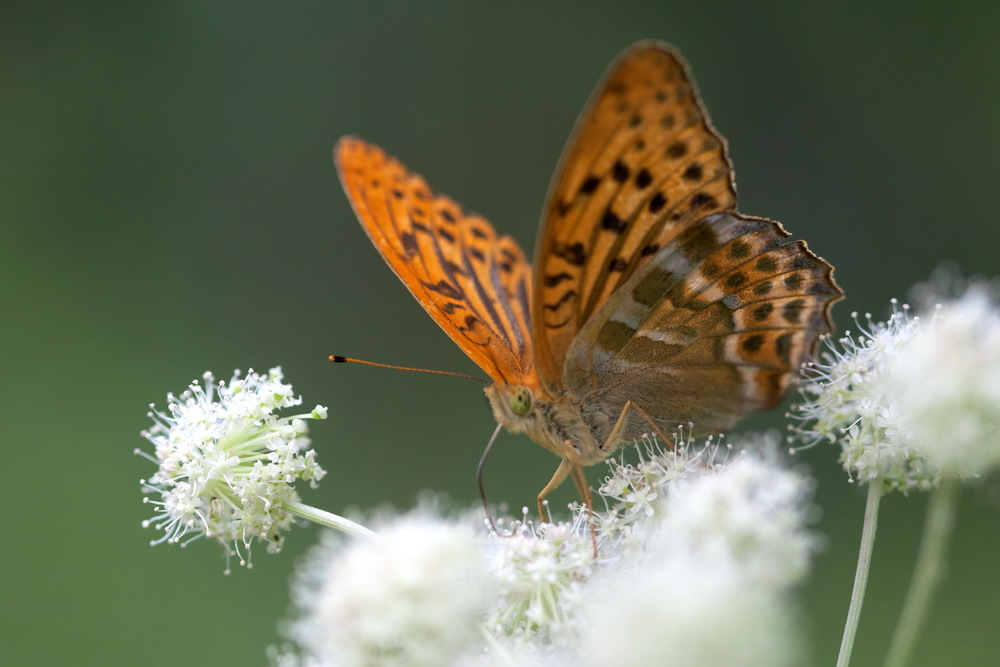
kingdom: Animalia
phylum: Arthropoda
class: Insecta
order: Lepidoptera
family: Nymphalidae
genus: Argynnis
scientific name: Argynnis paphia
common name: Silver-washed fritillary
